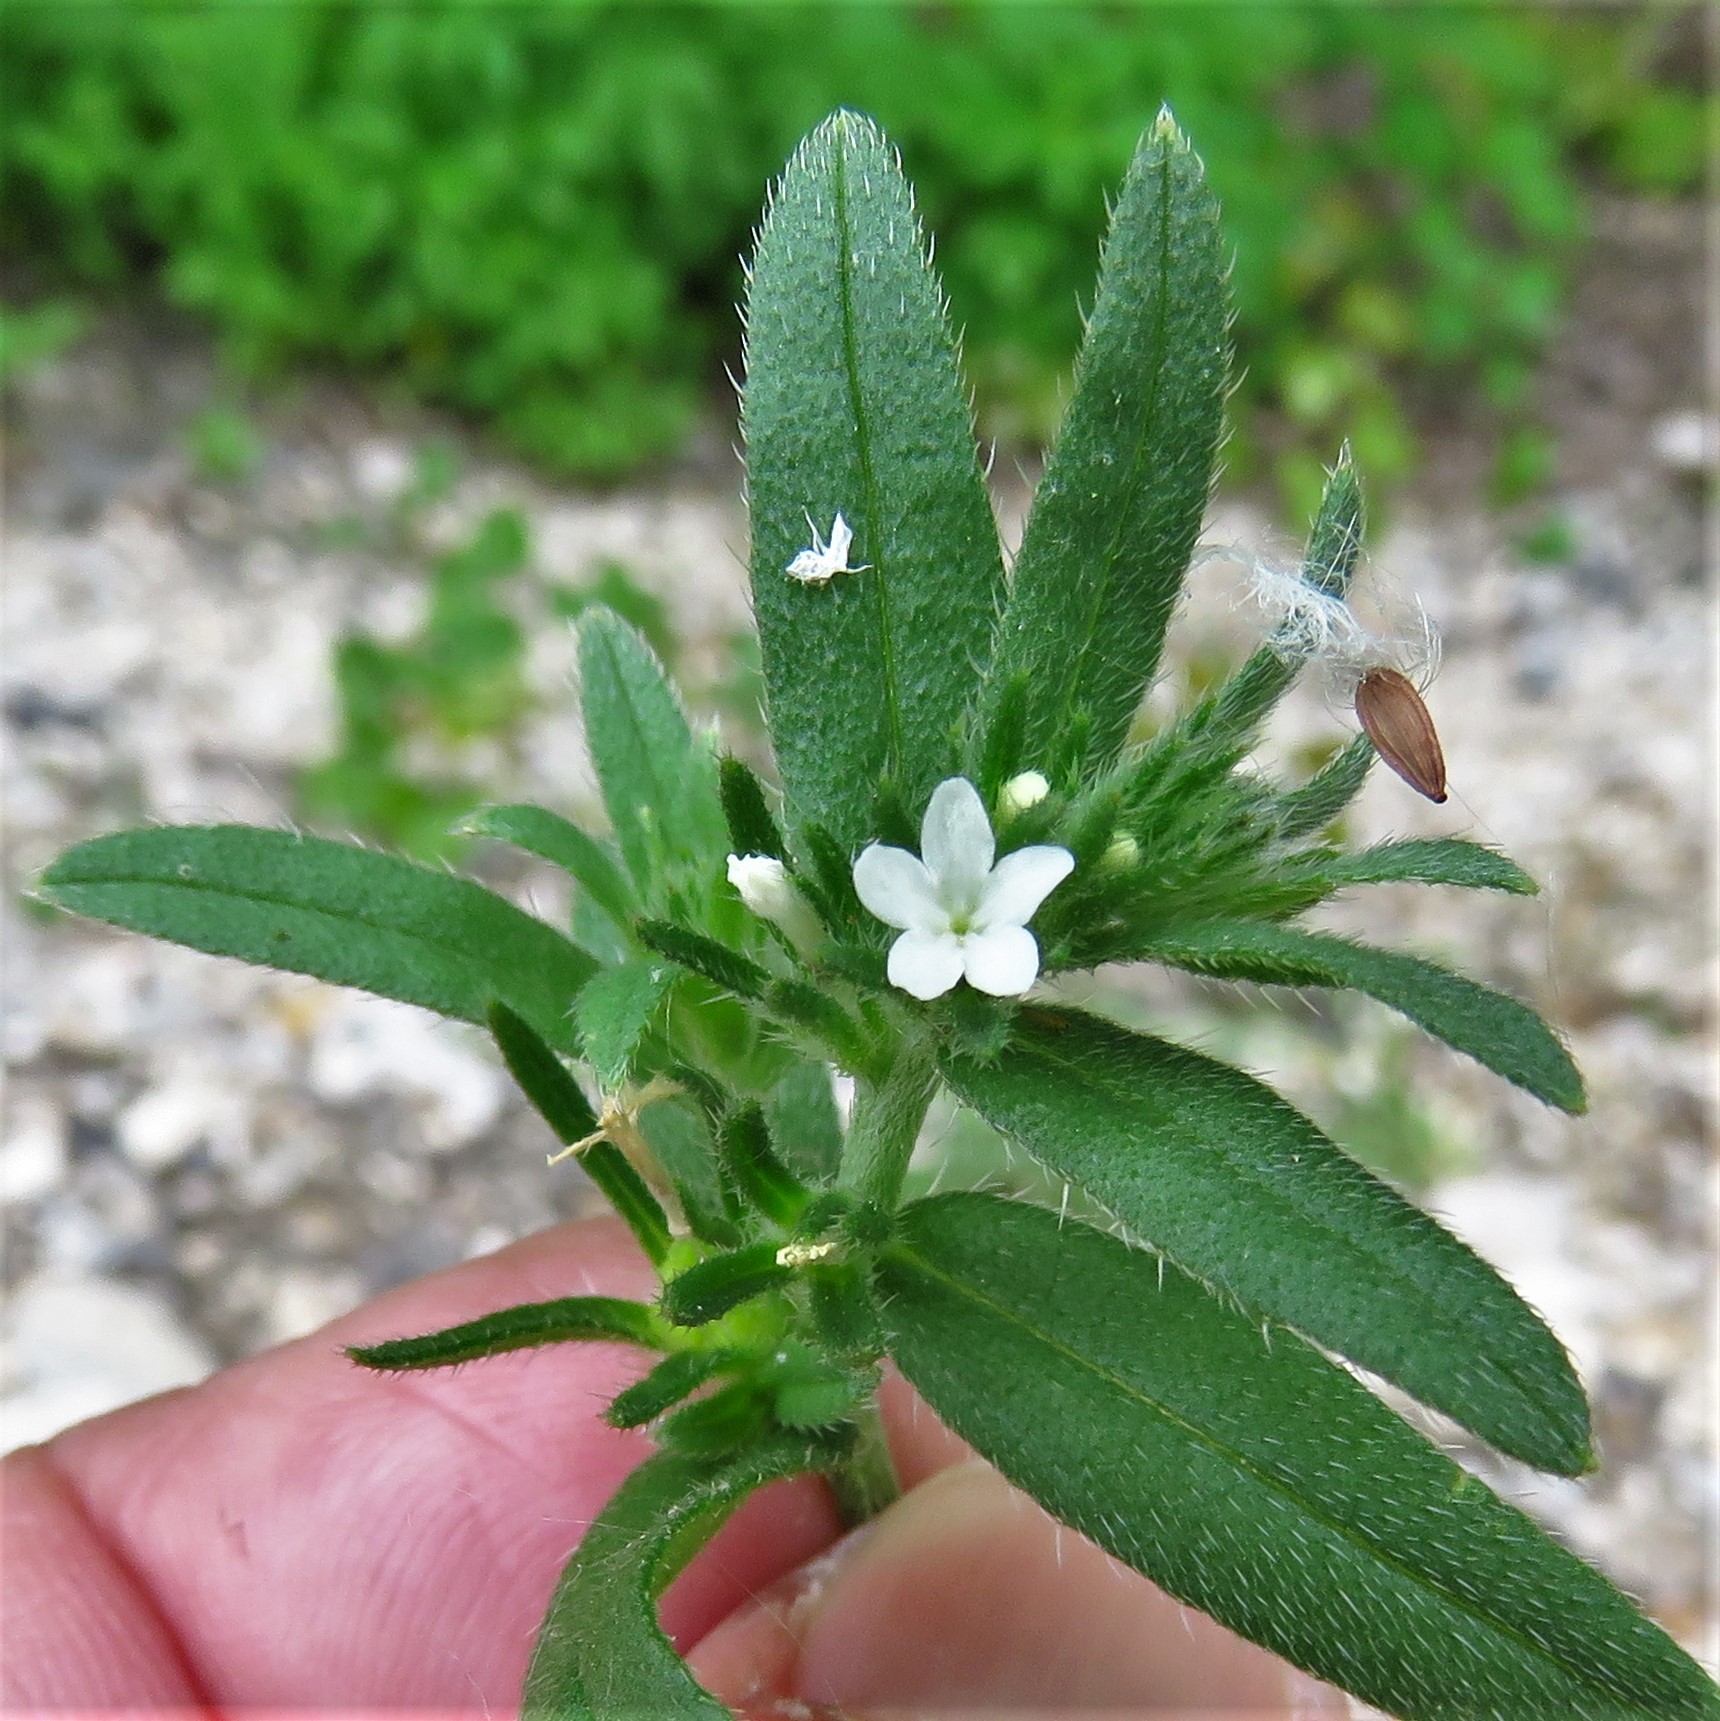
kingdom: Plantae
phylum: Tracheophyta
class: Magnoliopsida
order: Boraginales
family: Boraginaceae
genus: Buglossoides
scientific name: Buglossoides arvensis
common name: Corn gromwell
